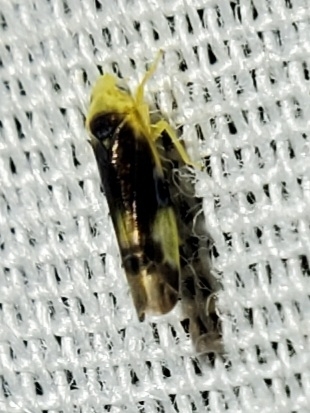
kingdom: Animalia
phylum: Arthropoda
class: Insecta
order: Hemiptera
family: Cicadellidae
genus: Empoa
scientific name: Empoa scripta
